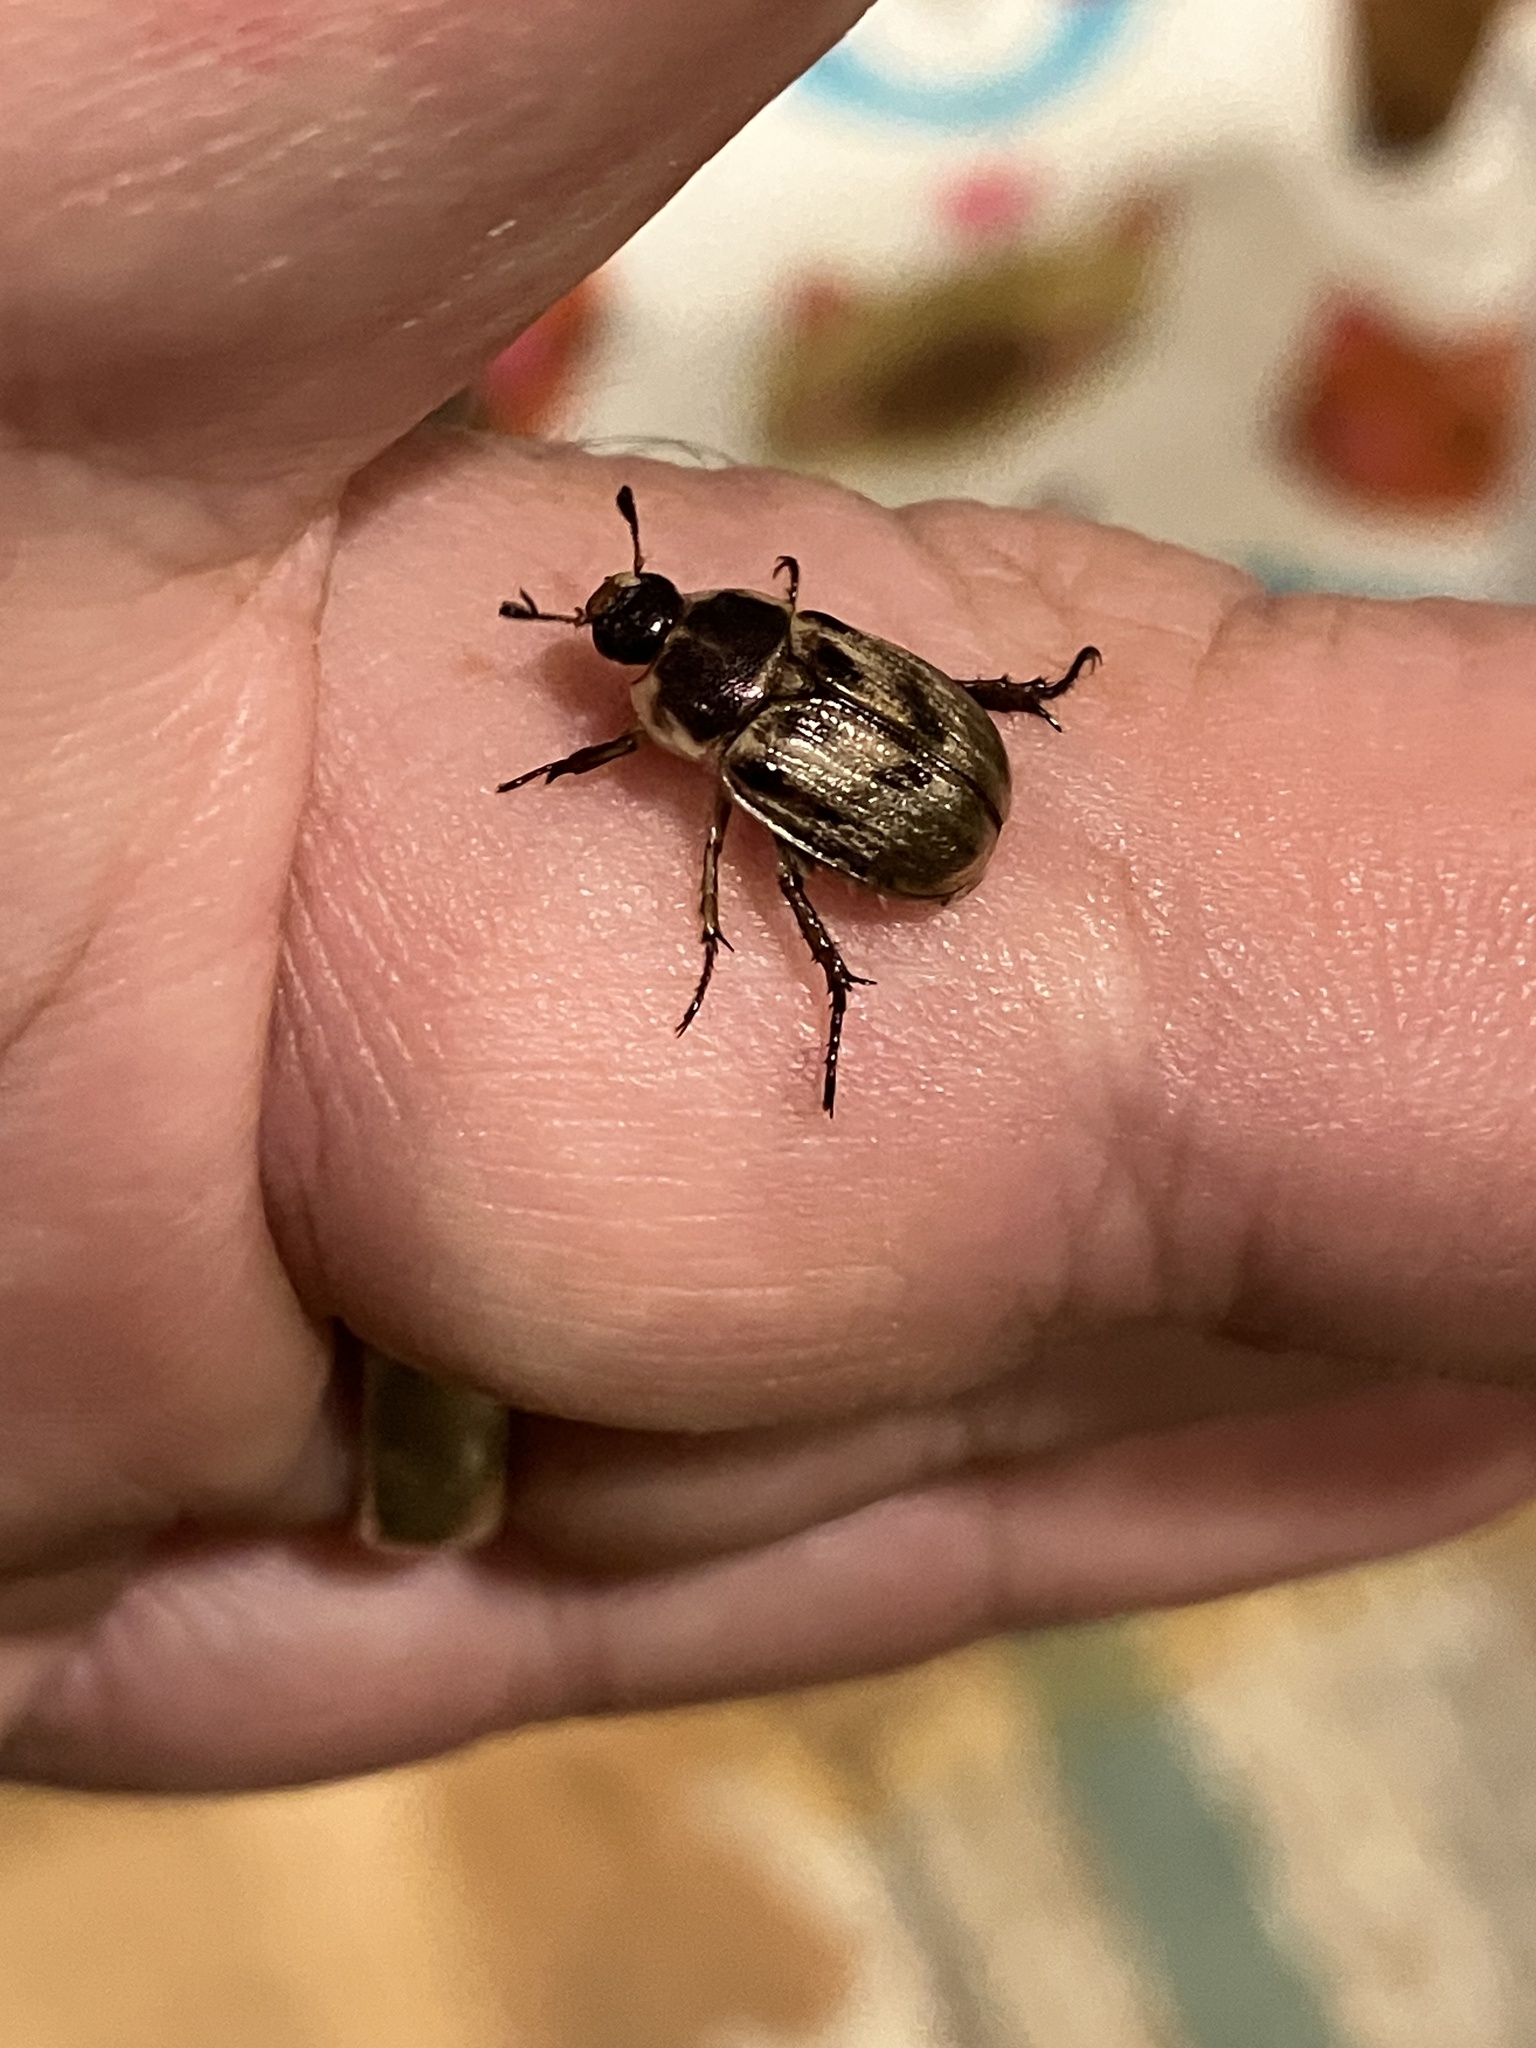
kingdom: Animalia
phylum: Arthropoda
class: Insecta
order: Coleoptera
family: Scarabaeidae
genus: Exomala
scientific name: Exomala orientalis
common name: Oriental beetle
